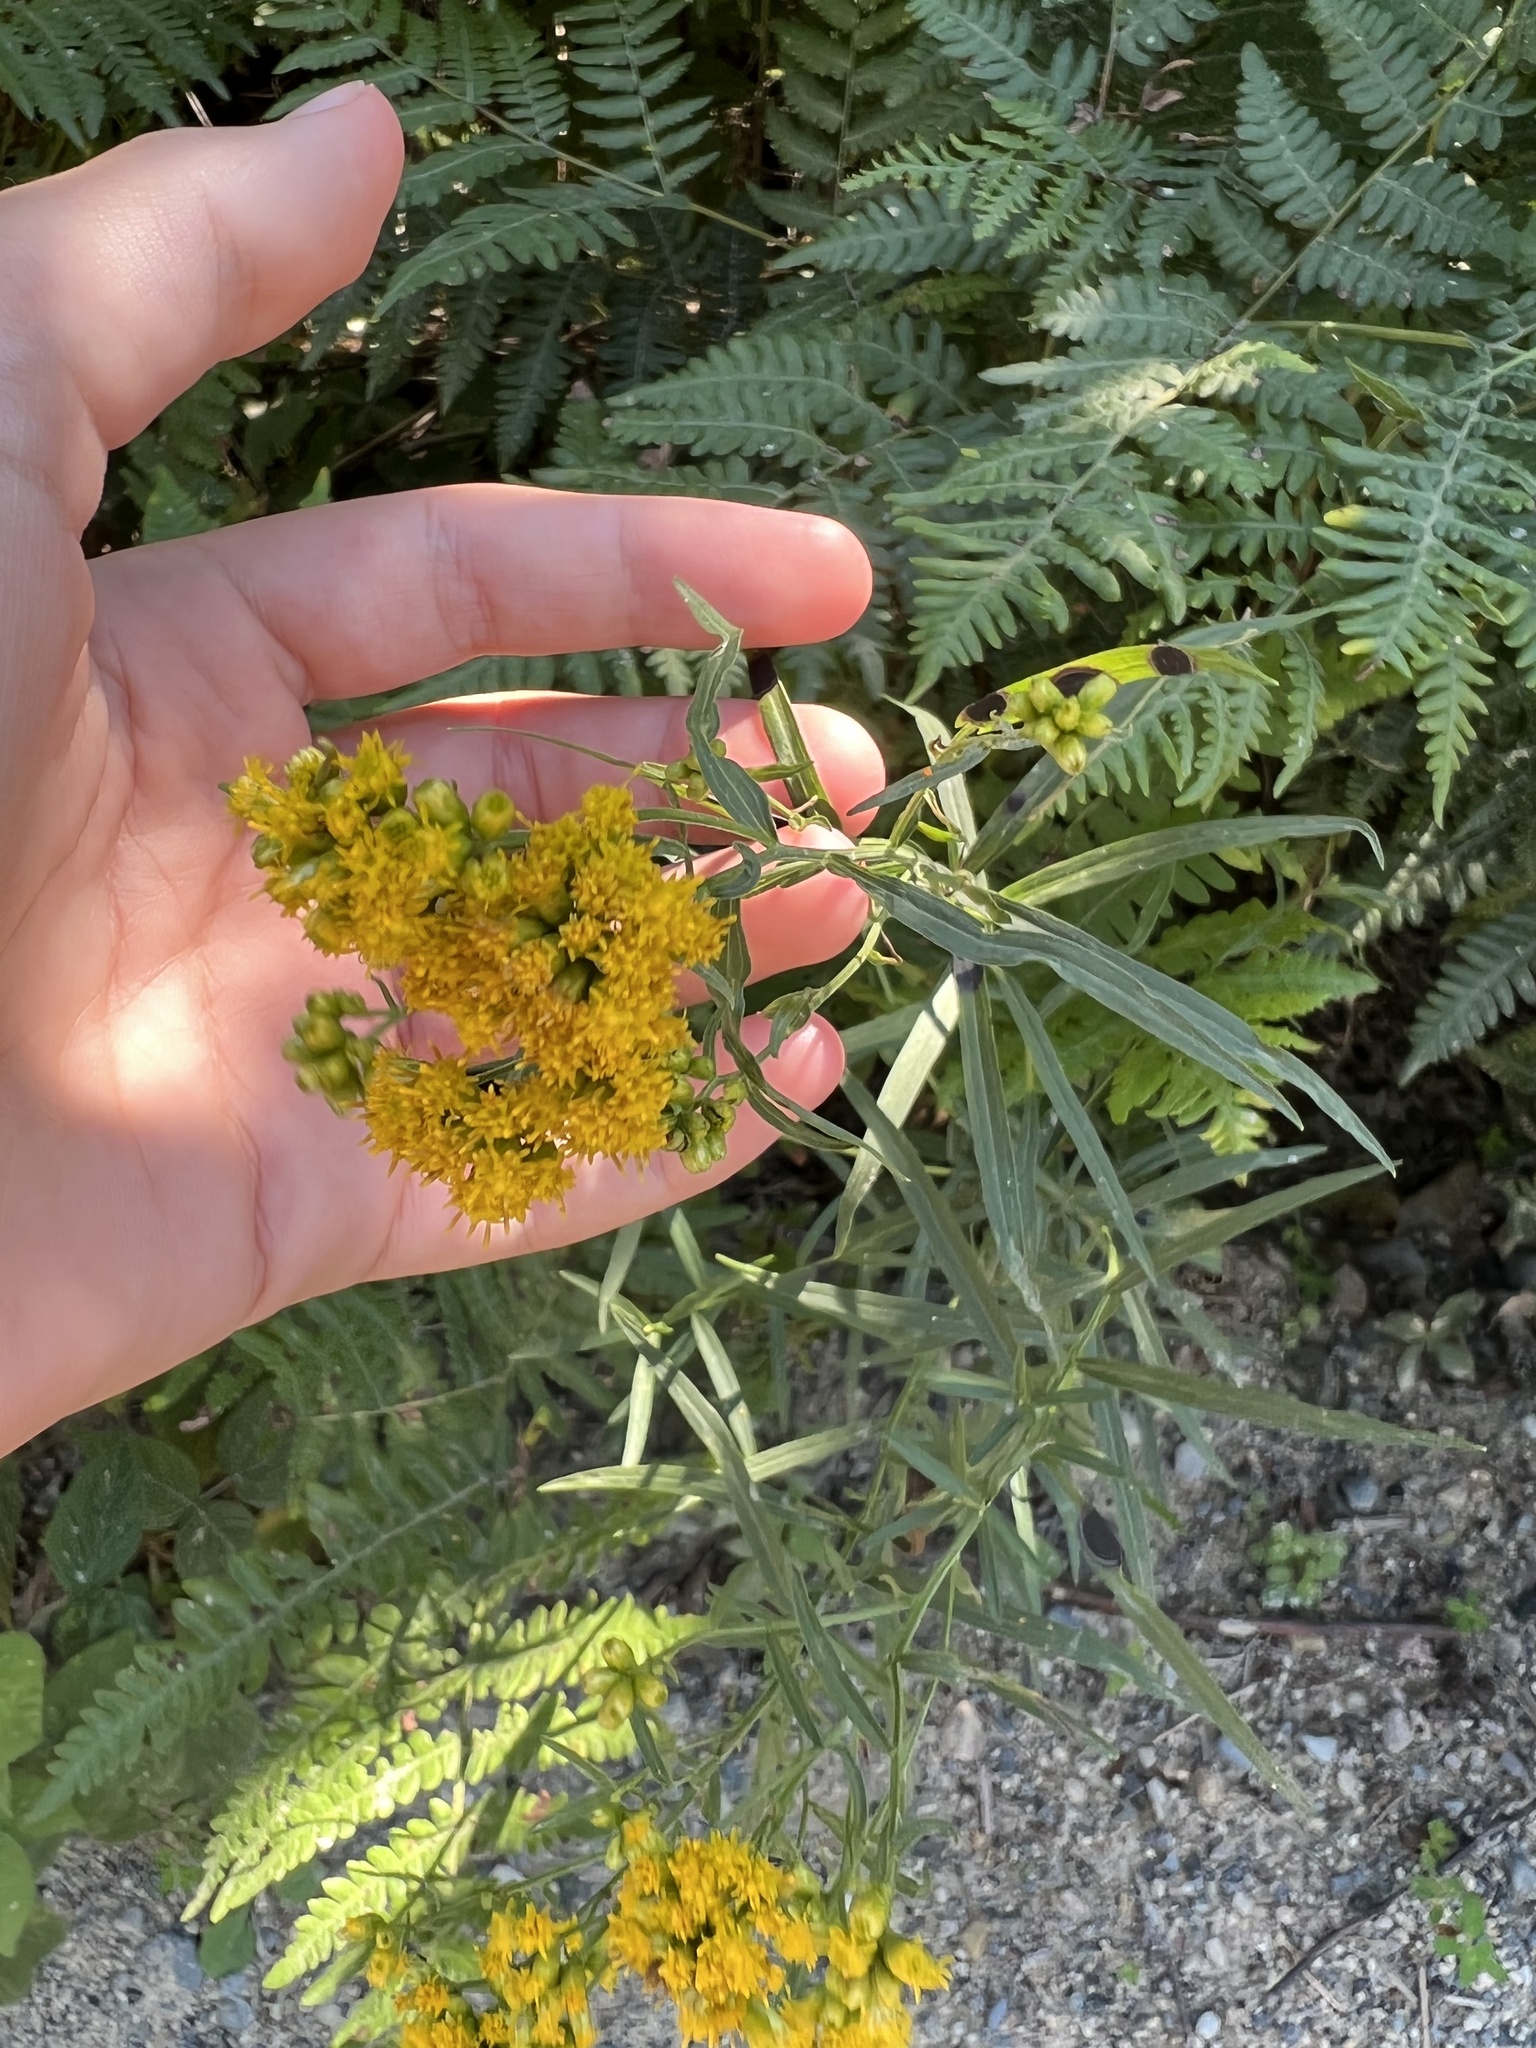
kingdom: Plantae
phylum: Tracheophyta
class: Magnoliopsida
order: Asterales
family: Asteraceae
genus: Euthamia
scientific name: Euthamia graminifolia
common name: Common goldentop
